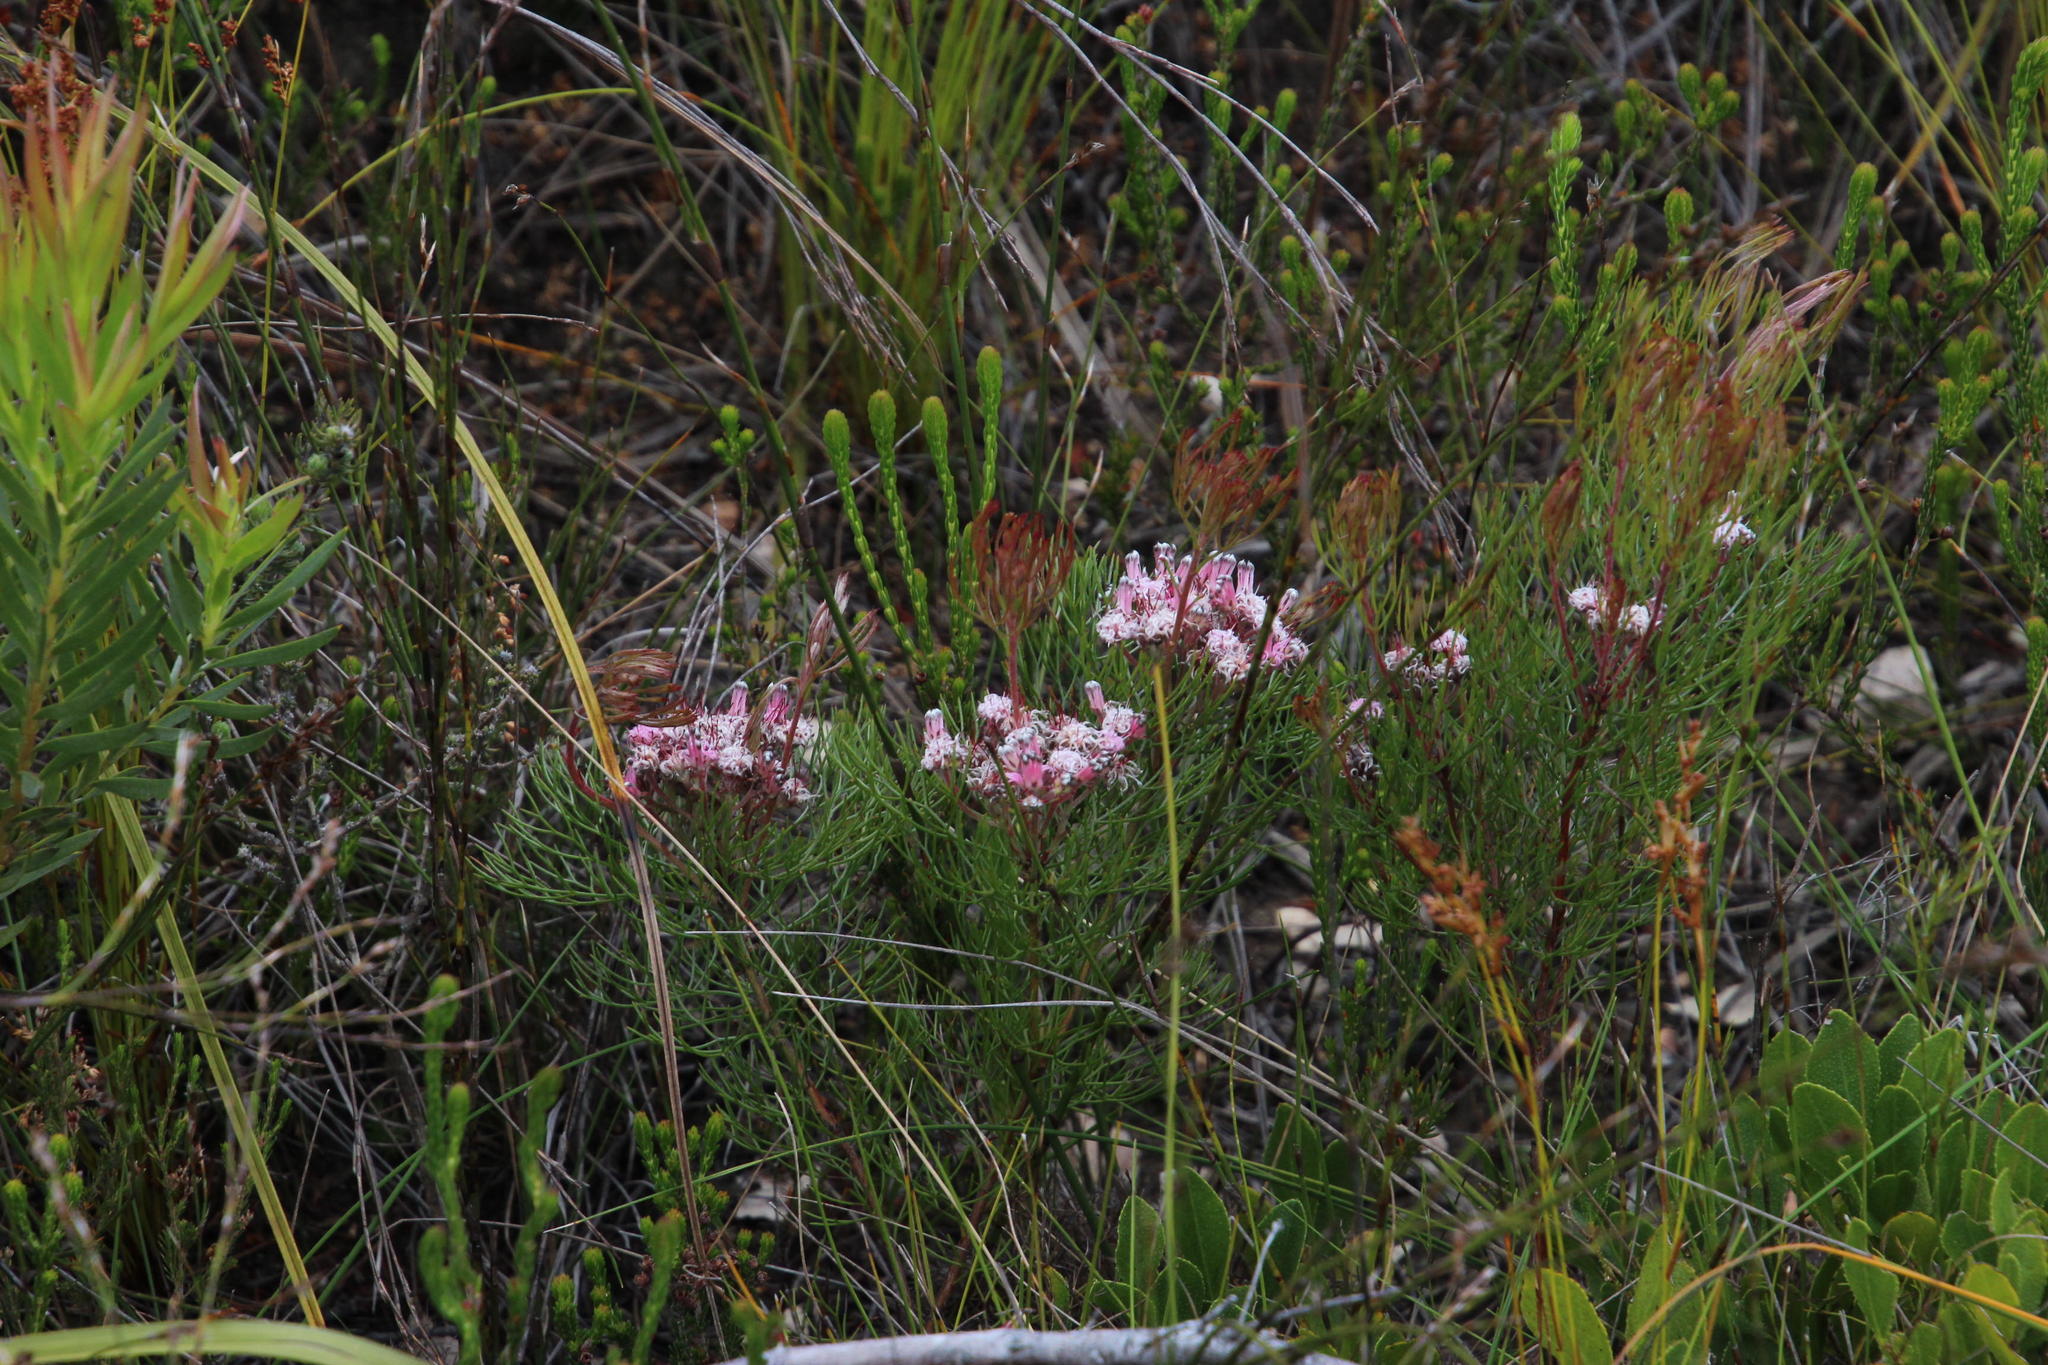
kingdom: Plantae
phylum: Tracheophyta
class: Magnoliopsida
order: Proteales
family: Proteaceae
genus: Serruria
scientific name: Serruria fasciflora
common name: Common pin spiderhead
